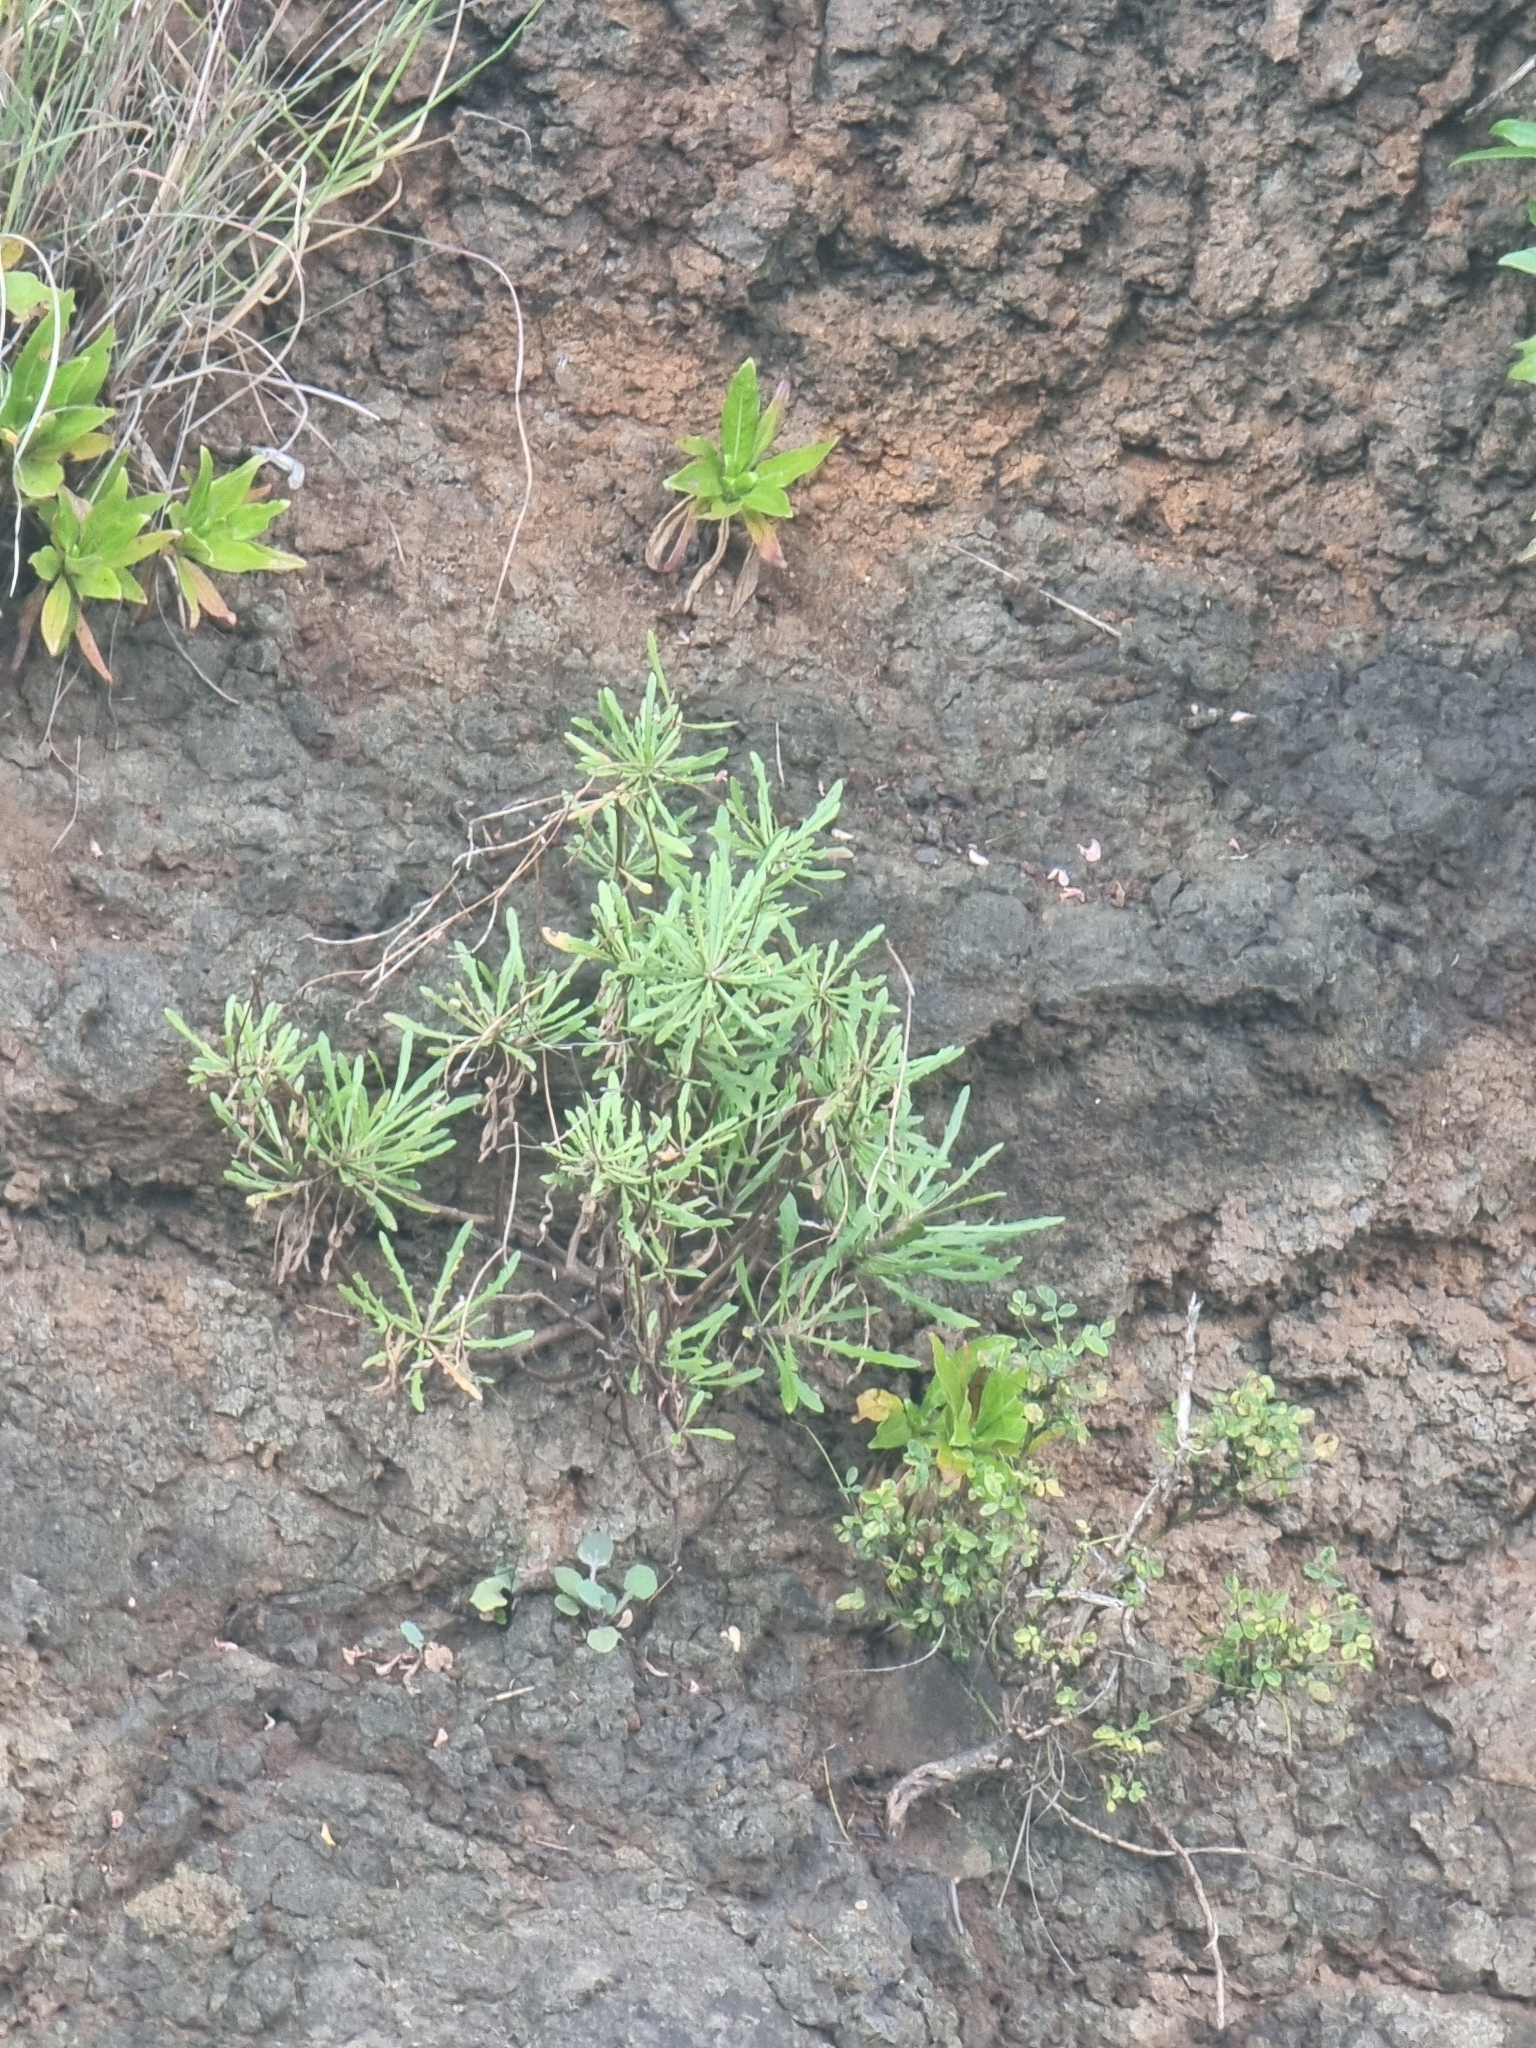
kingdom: Plantae
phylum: Tracheophyta
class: Magnoliopsida
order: Asterales
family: Asteraceae
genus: Tolpis
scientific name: Tolpis succulenta
